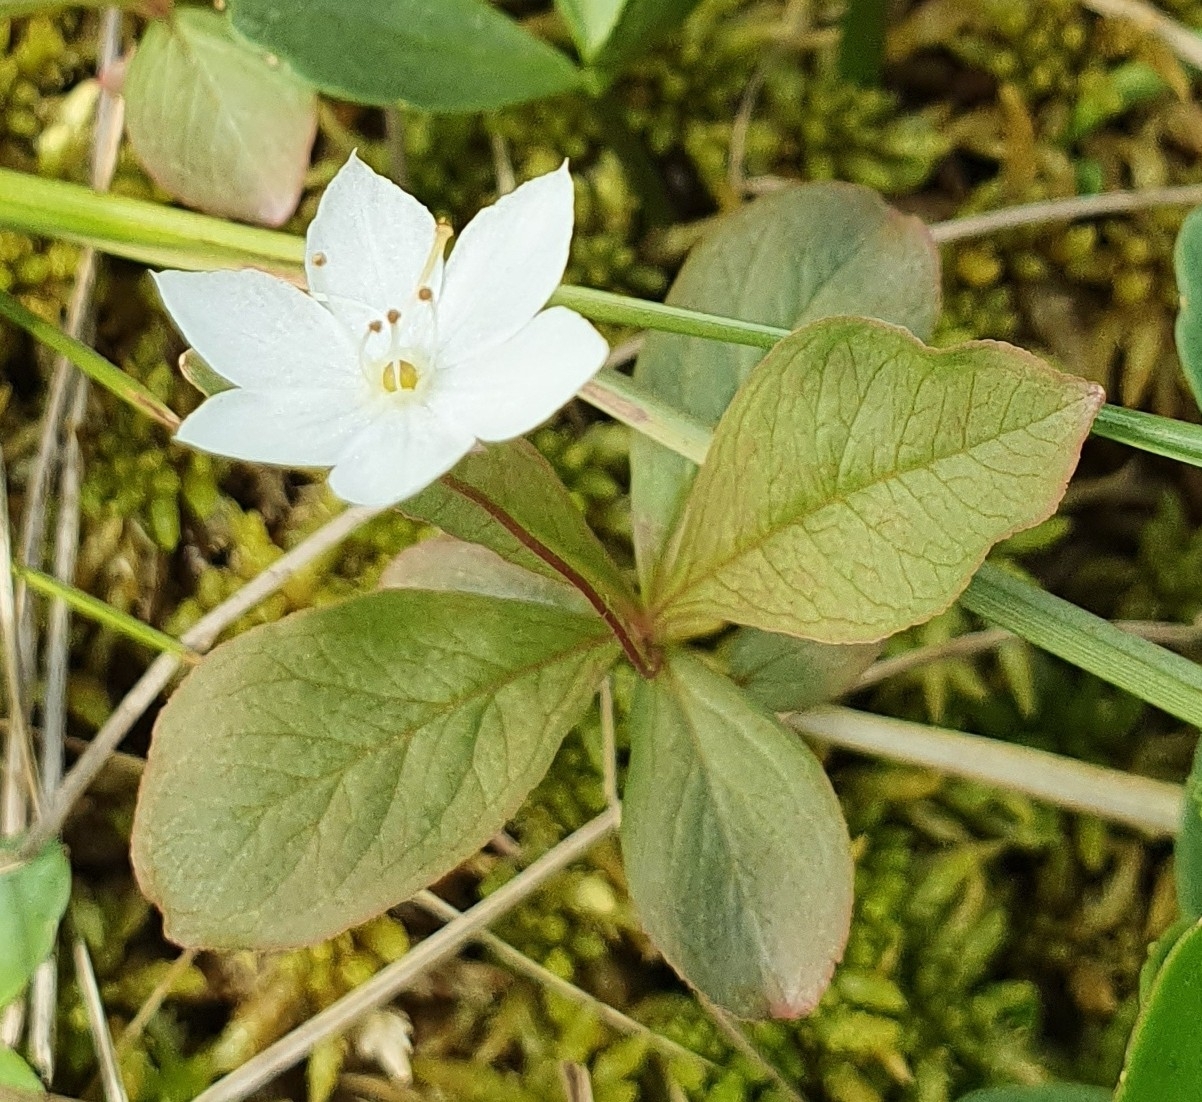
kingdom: Plantae
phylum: Tracheophyta
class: Magnoliopsida
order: Ericales
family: Primulaceae
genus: Lysimachia
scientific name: Lysimachia europaea
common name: Arctic starflower
